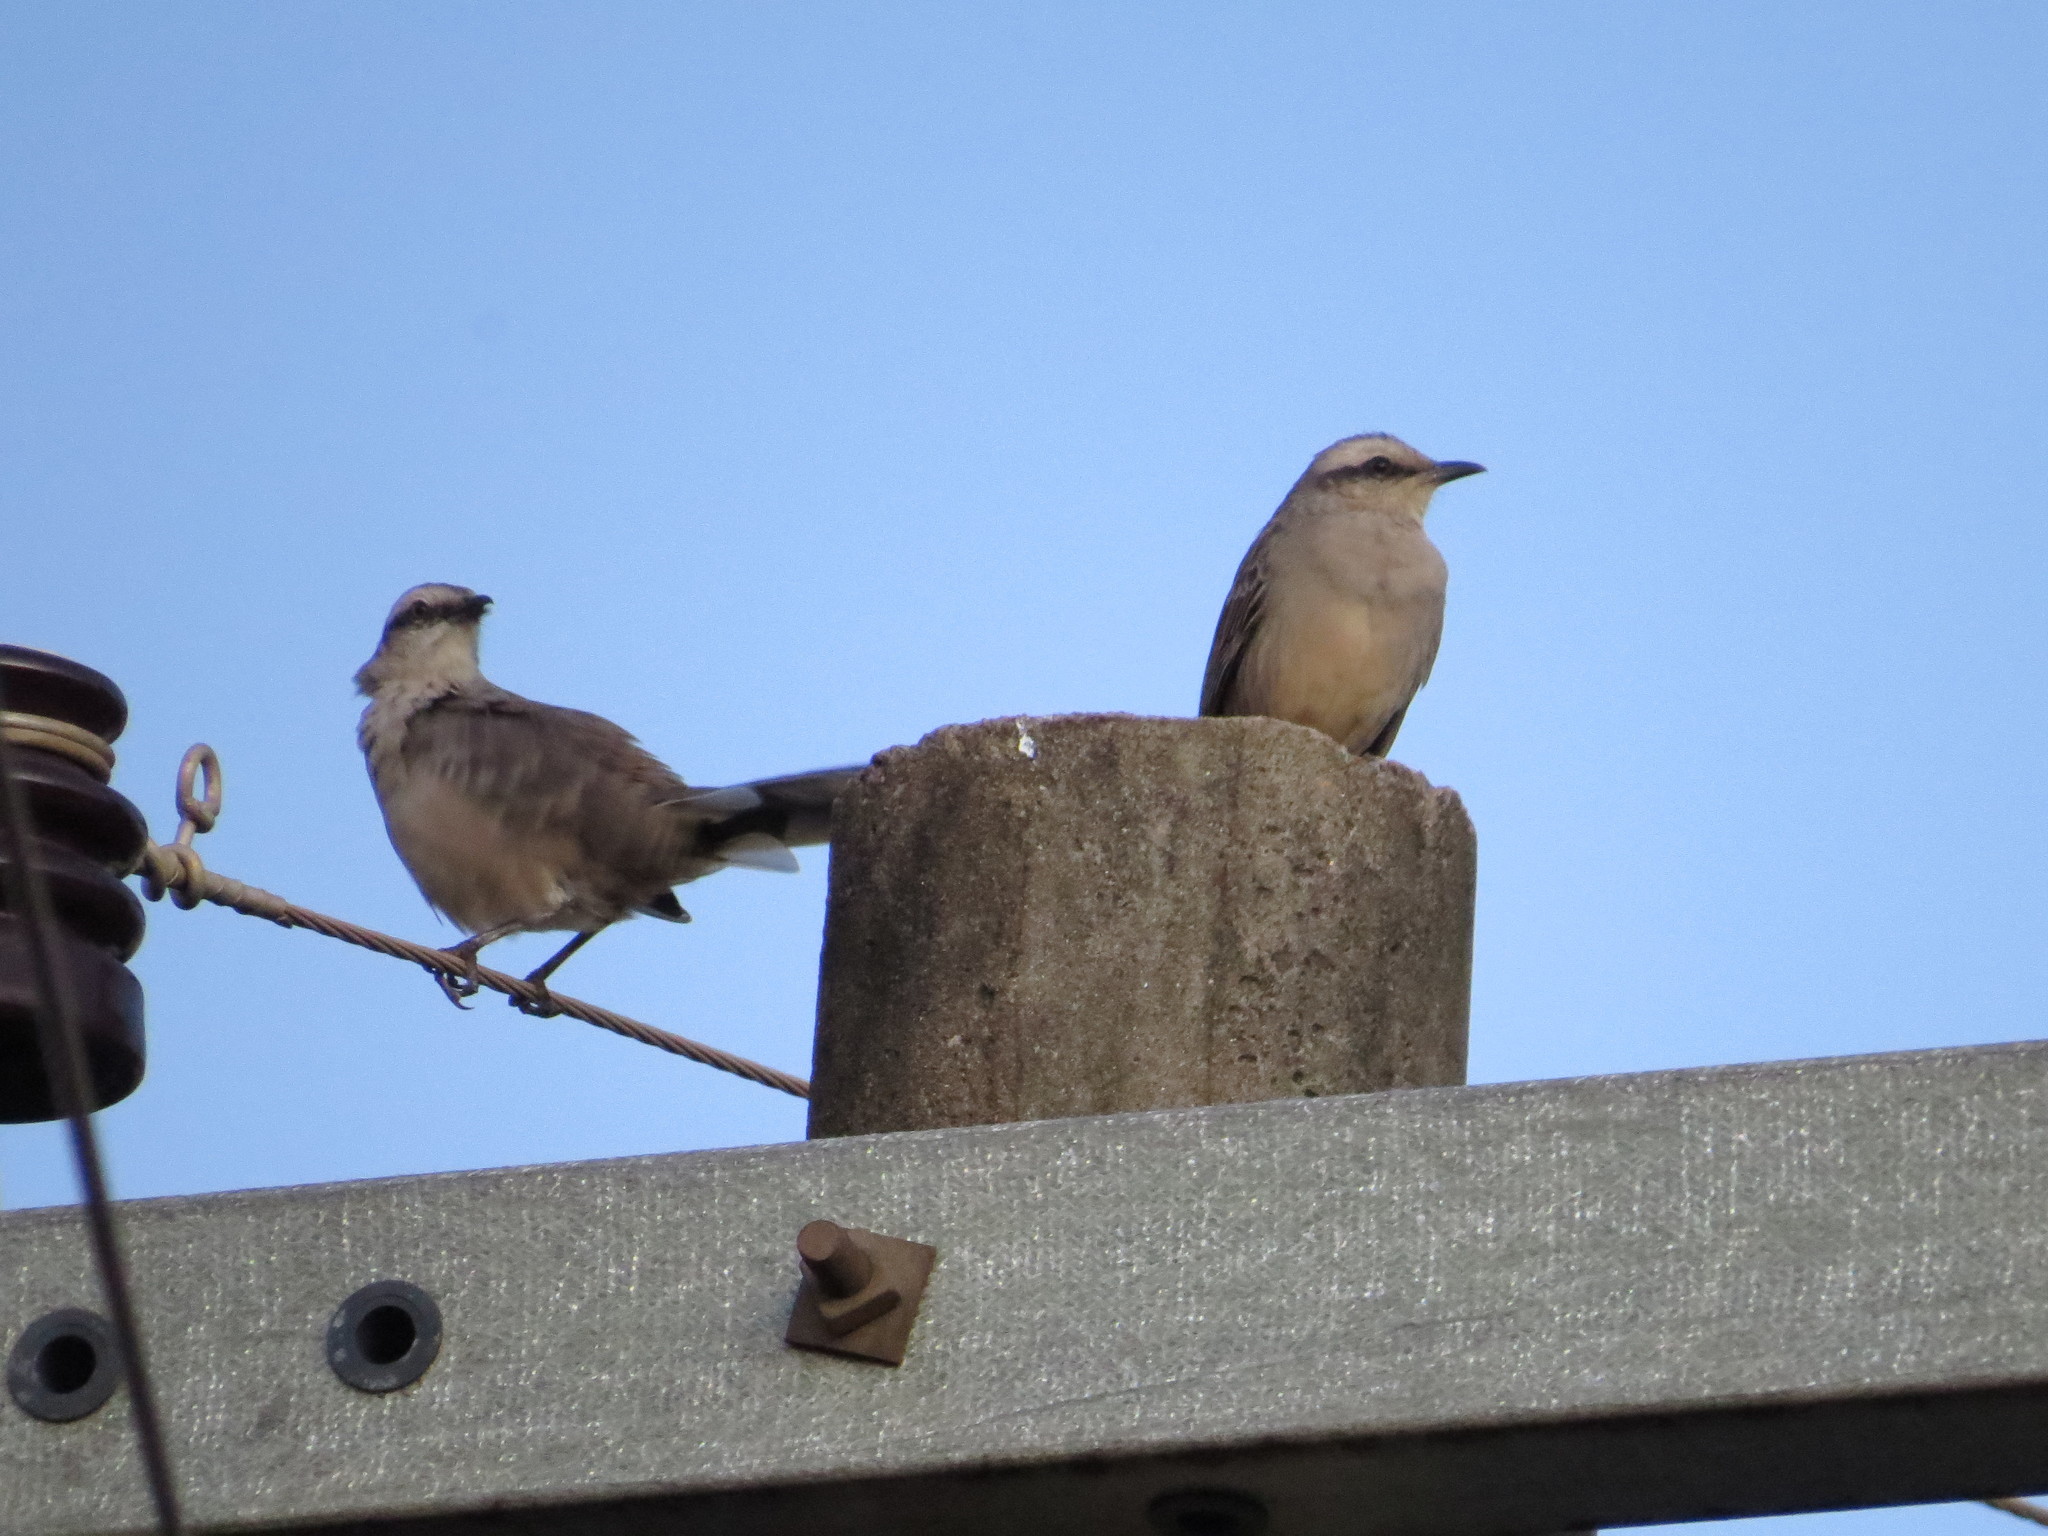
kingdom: Animalia
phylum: Chordata
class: Aves
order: Passeriformes
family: Mimidae
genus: Mimus
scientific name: Mimus saturninus
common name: Chalk-browed mockingbird
